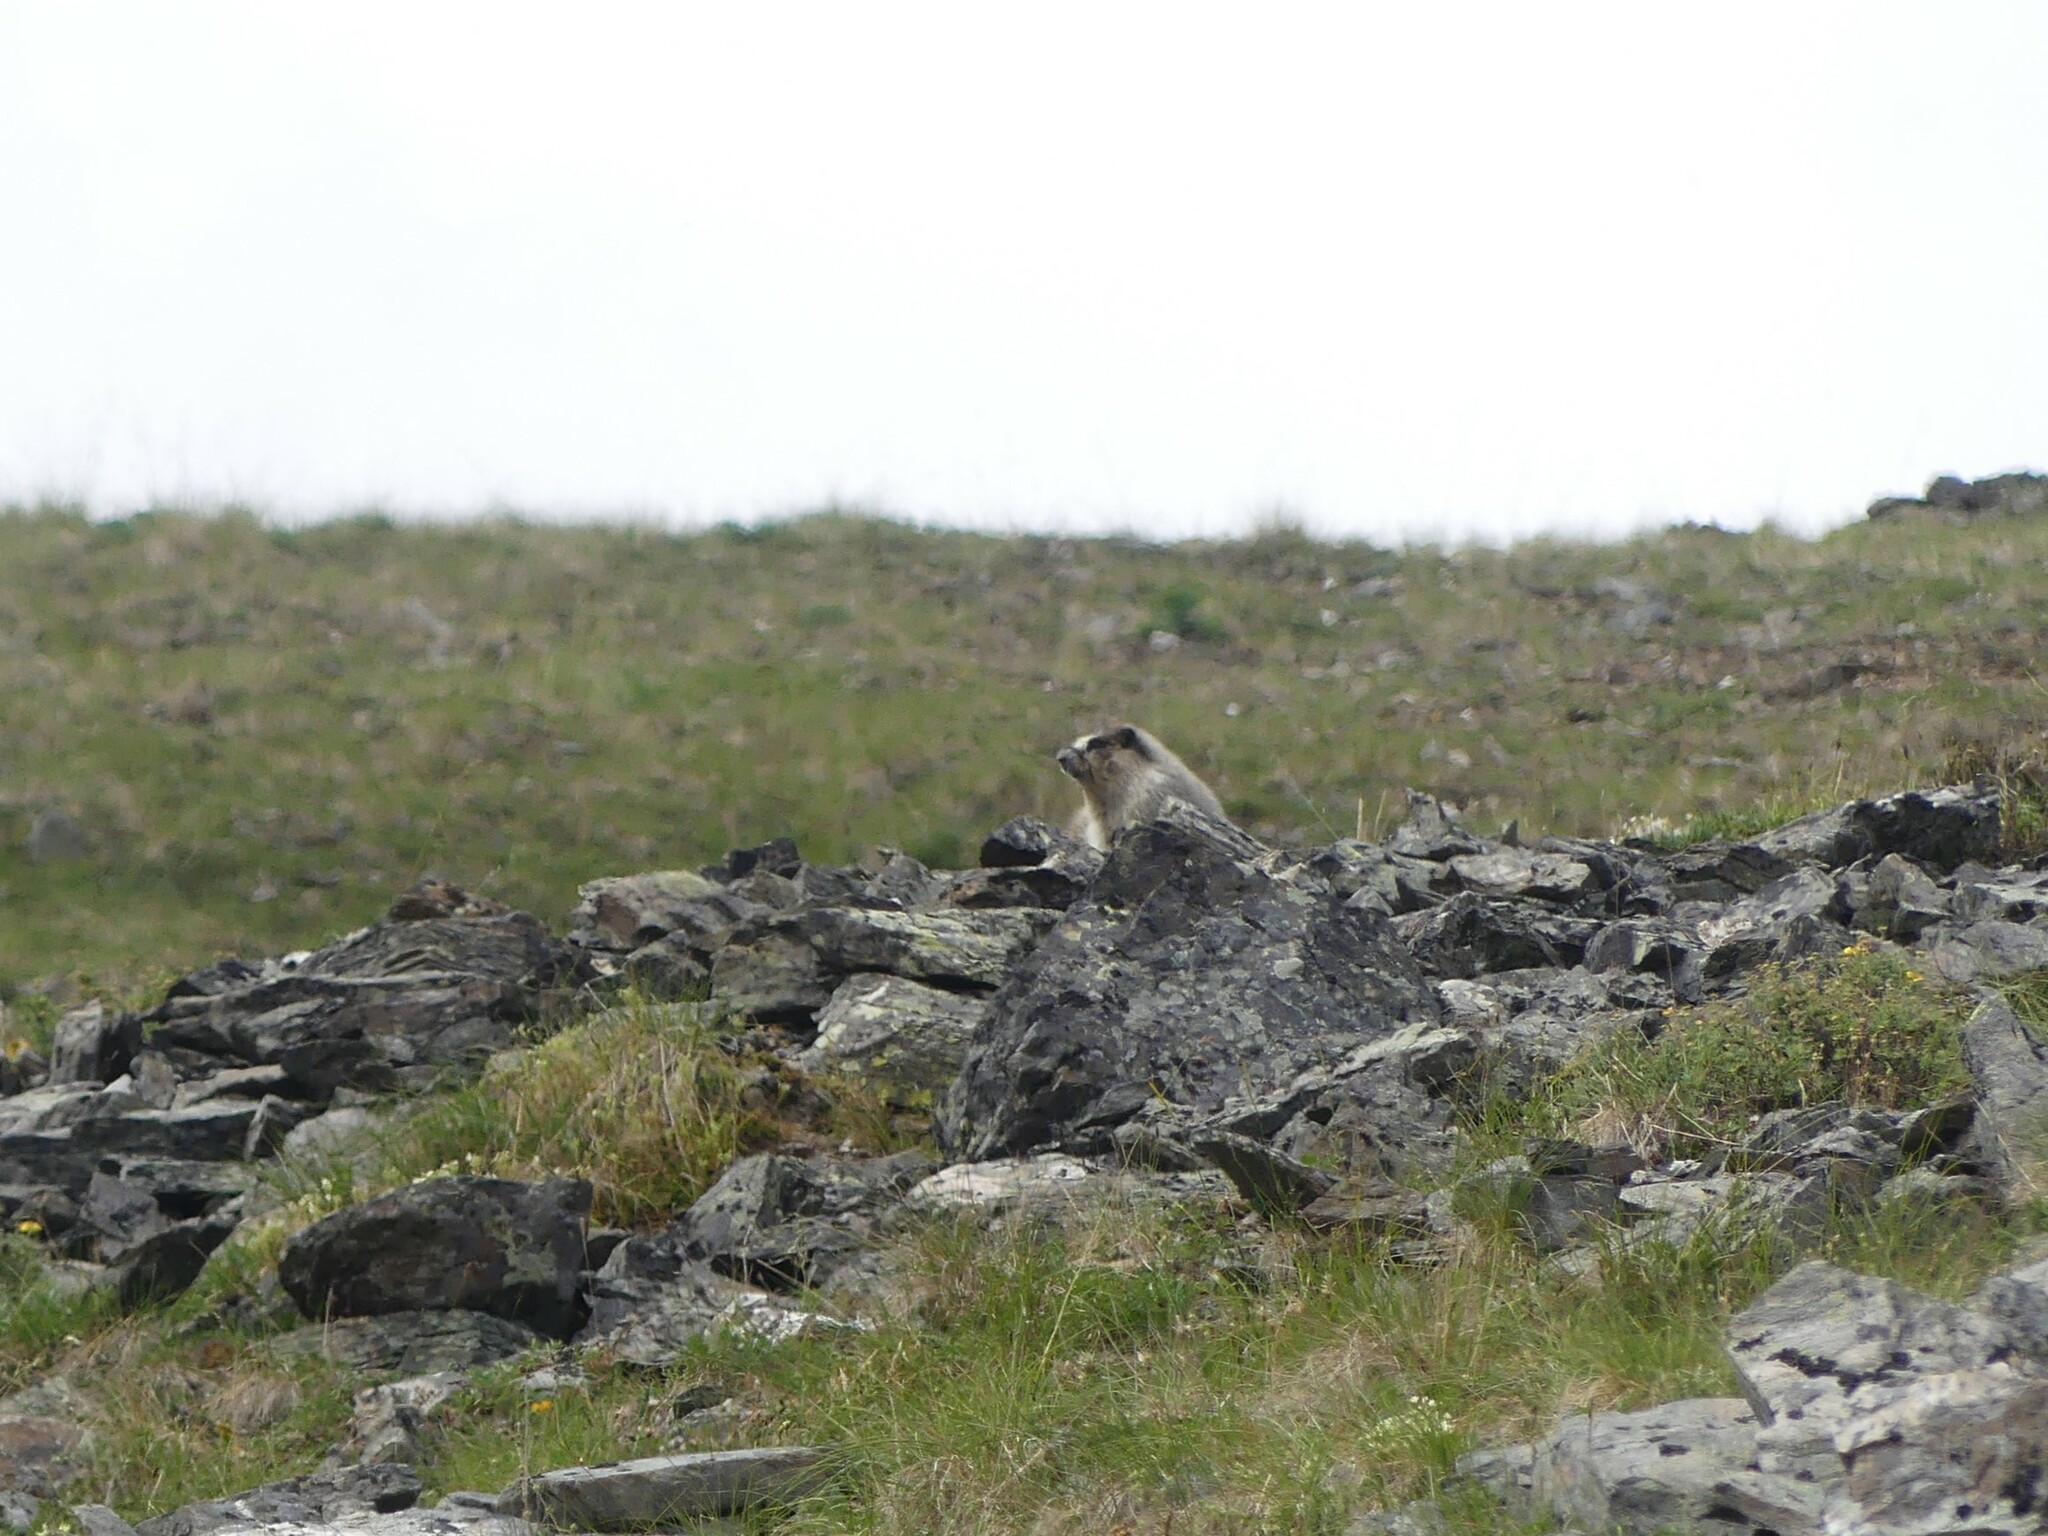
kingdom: Animalia
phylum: Chordata
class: Mammalia
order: Rodentia
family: Sciuridae
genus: Marmota
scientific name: Marmota caligata
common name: Hoary marmot
